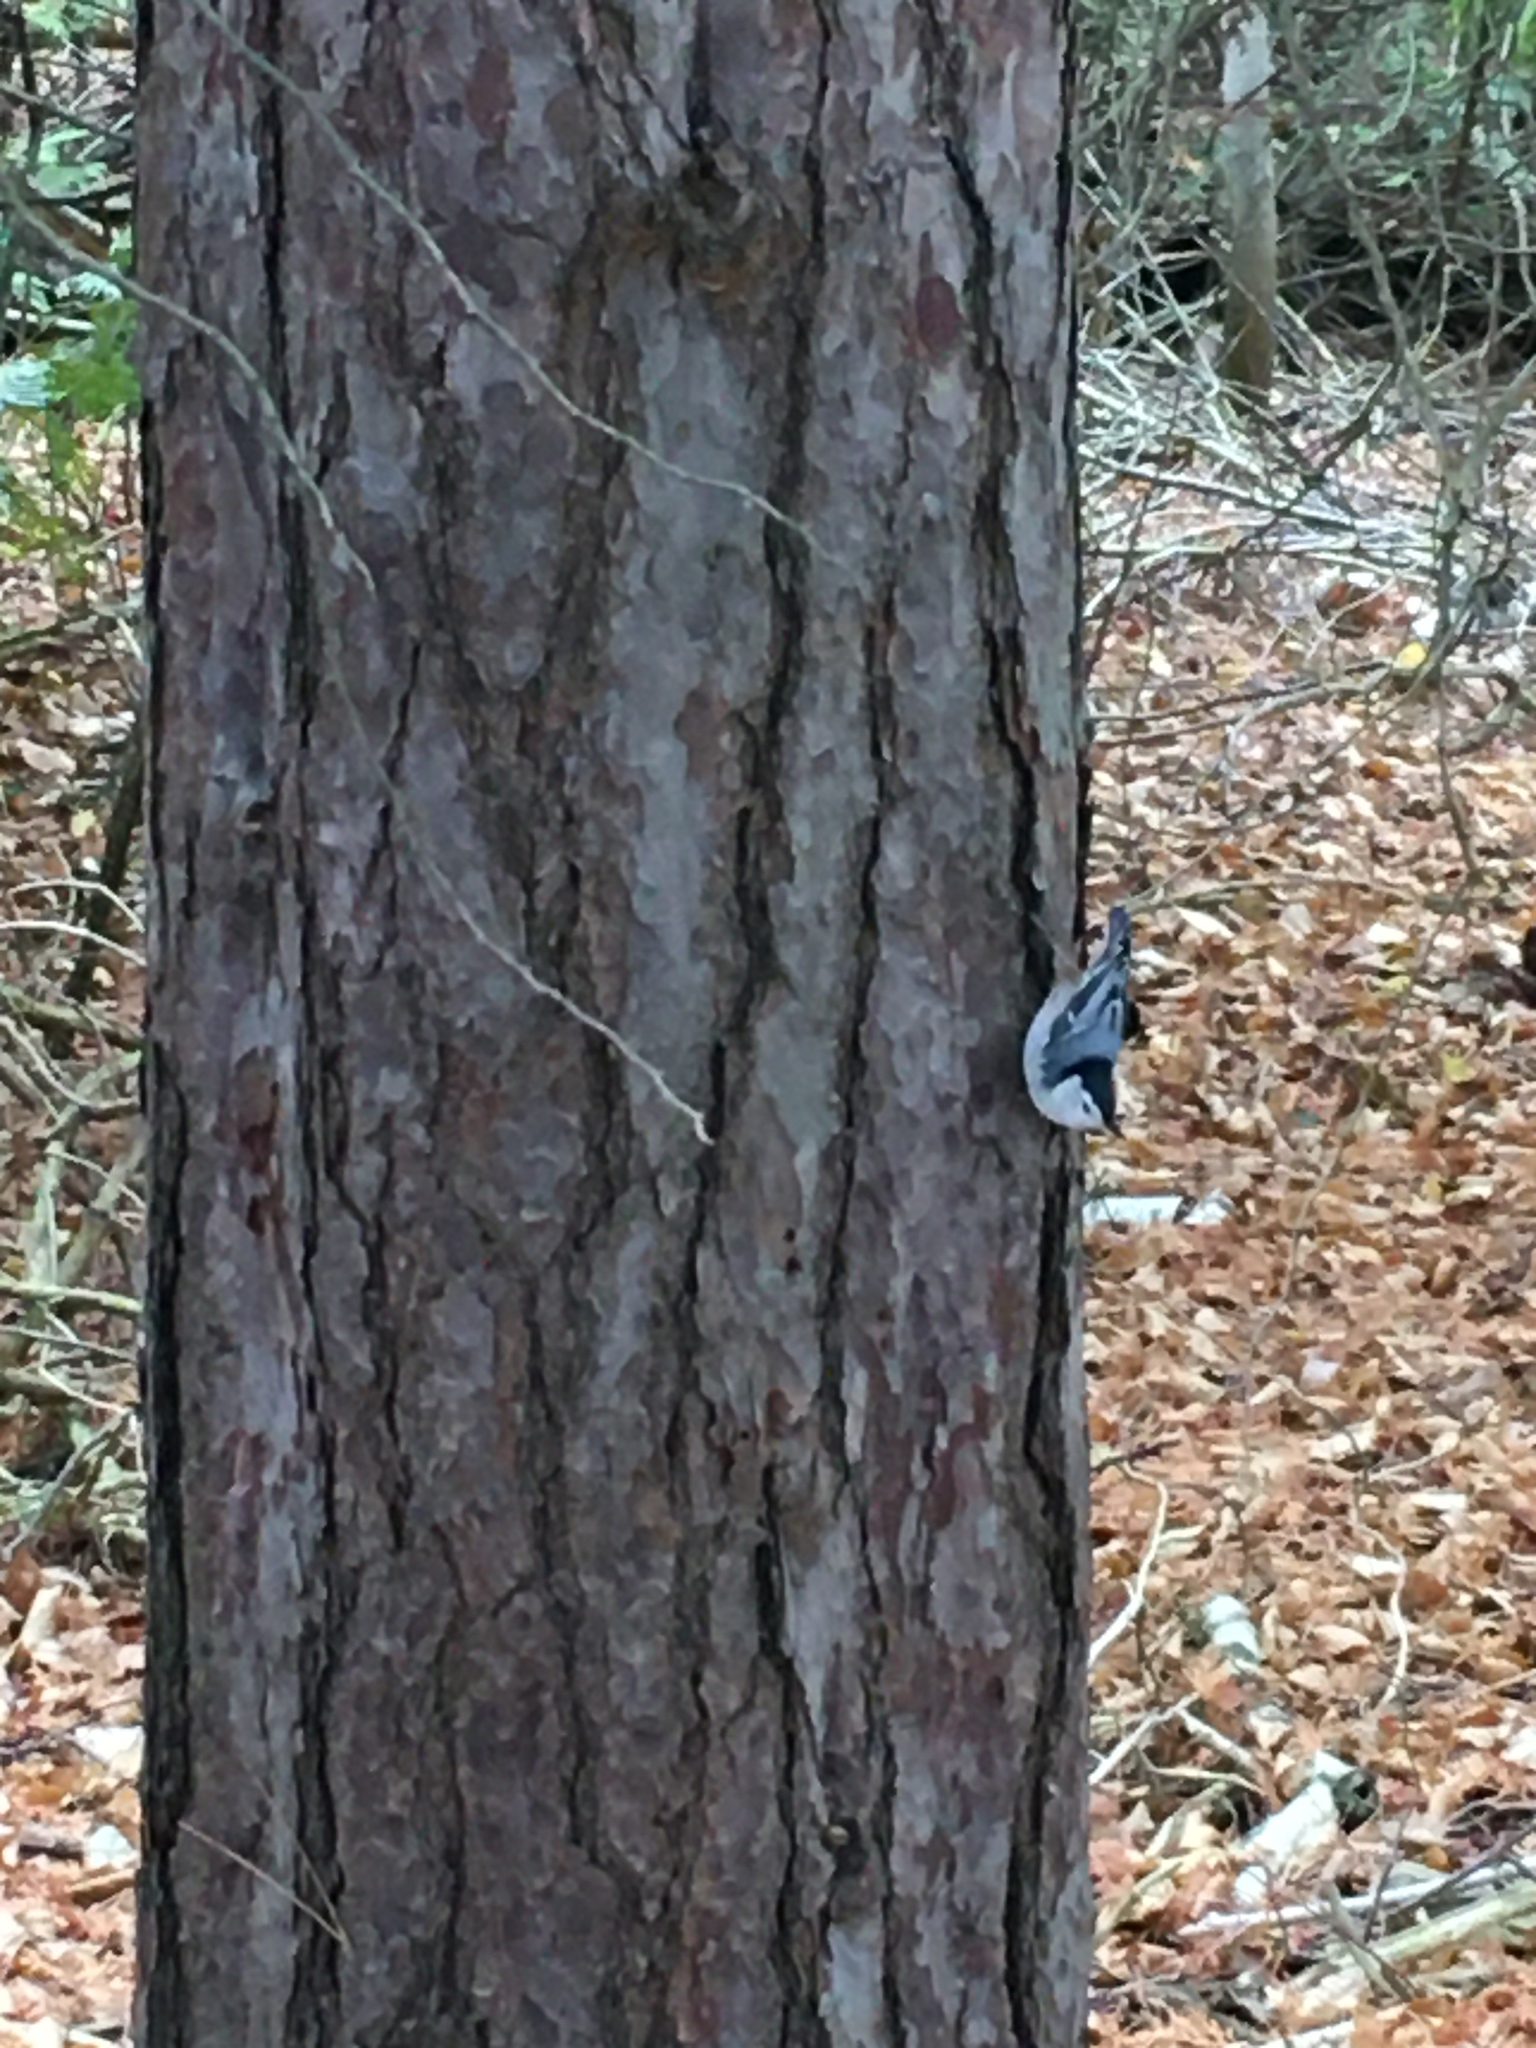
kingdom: Animalia
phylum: Chordata
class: Aves
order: Passeriformes
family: Sittidae
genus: Sitta
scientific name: Sitta carolinensis
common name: White-breasted nuthatch
